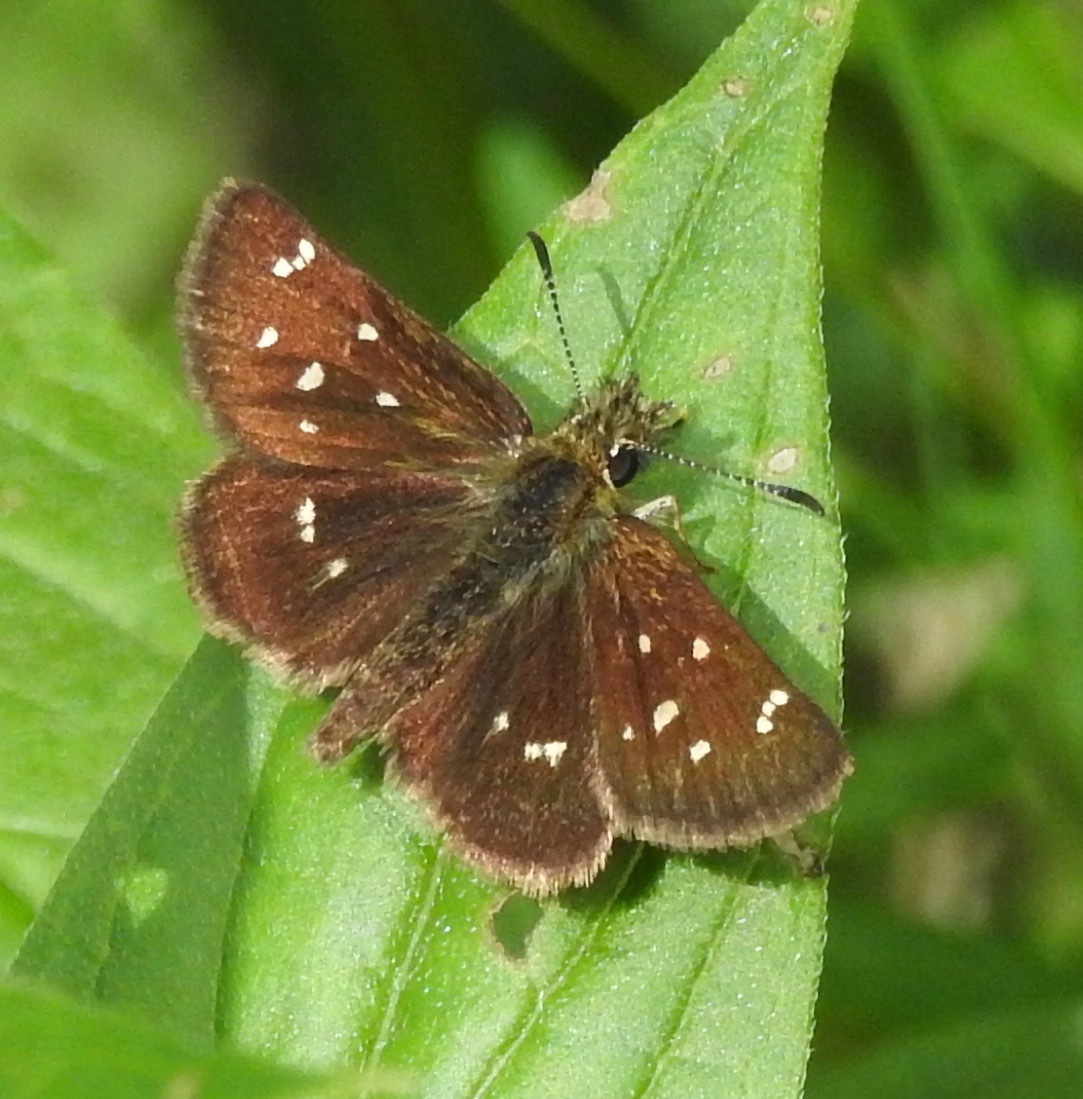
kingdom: Animalia
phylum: Arthropoda
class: Insecta
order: Lepidoptera
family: Hesperiidae
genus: Piruna
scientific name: Piruna polingii
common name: Four-spotted skipperling
